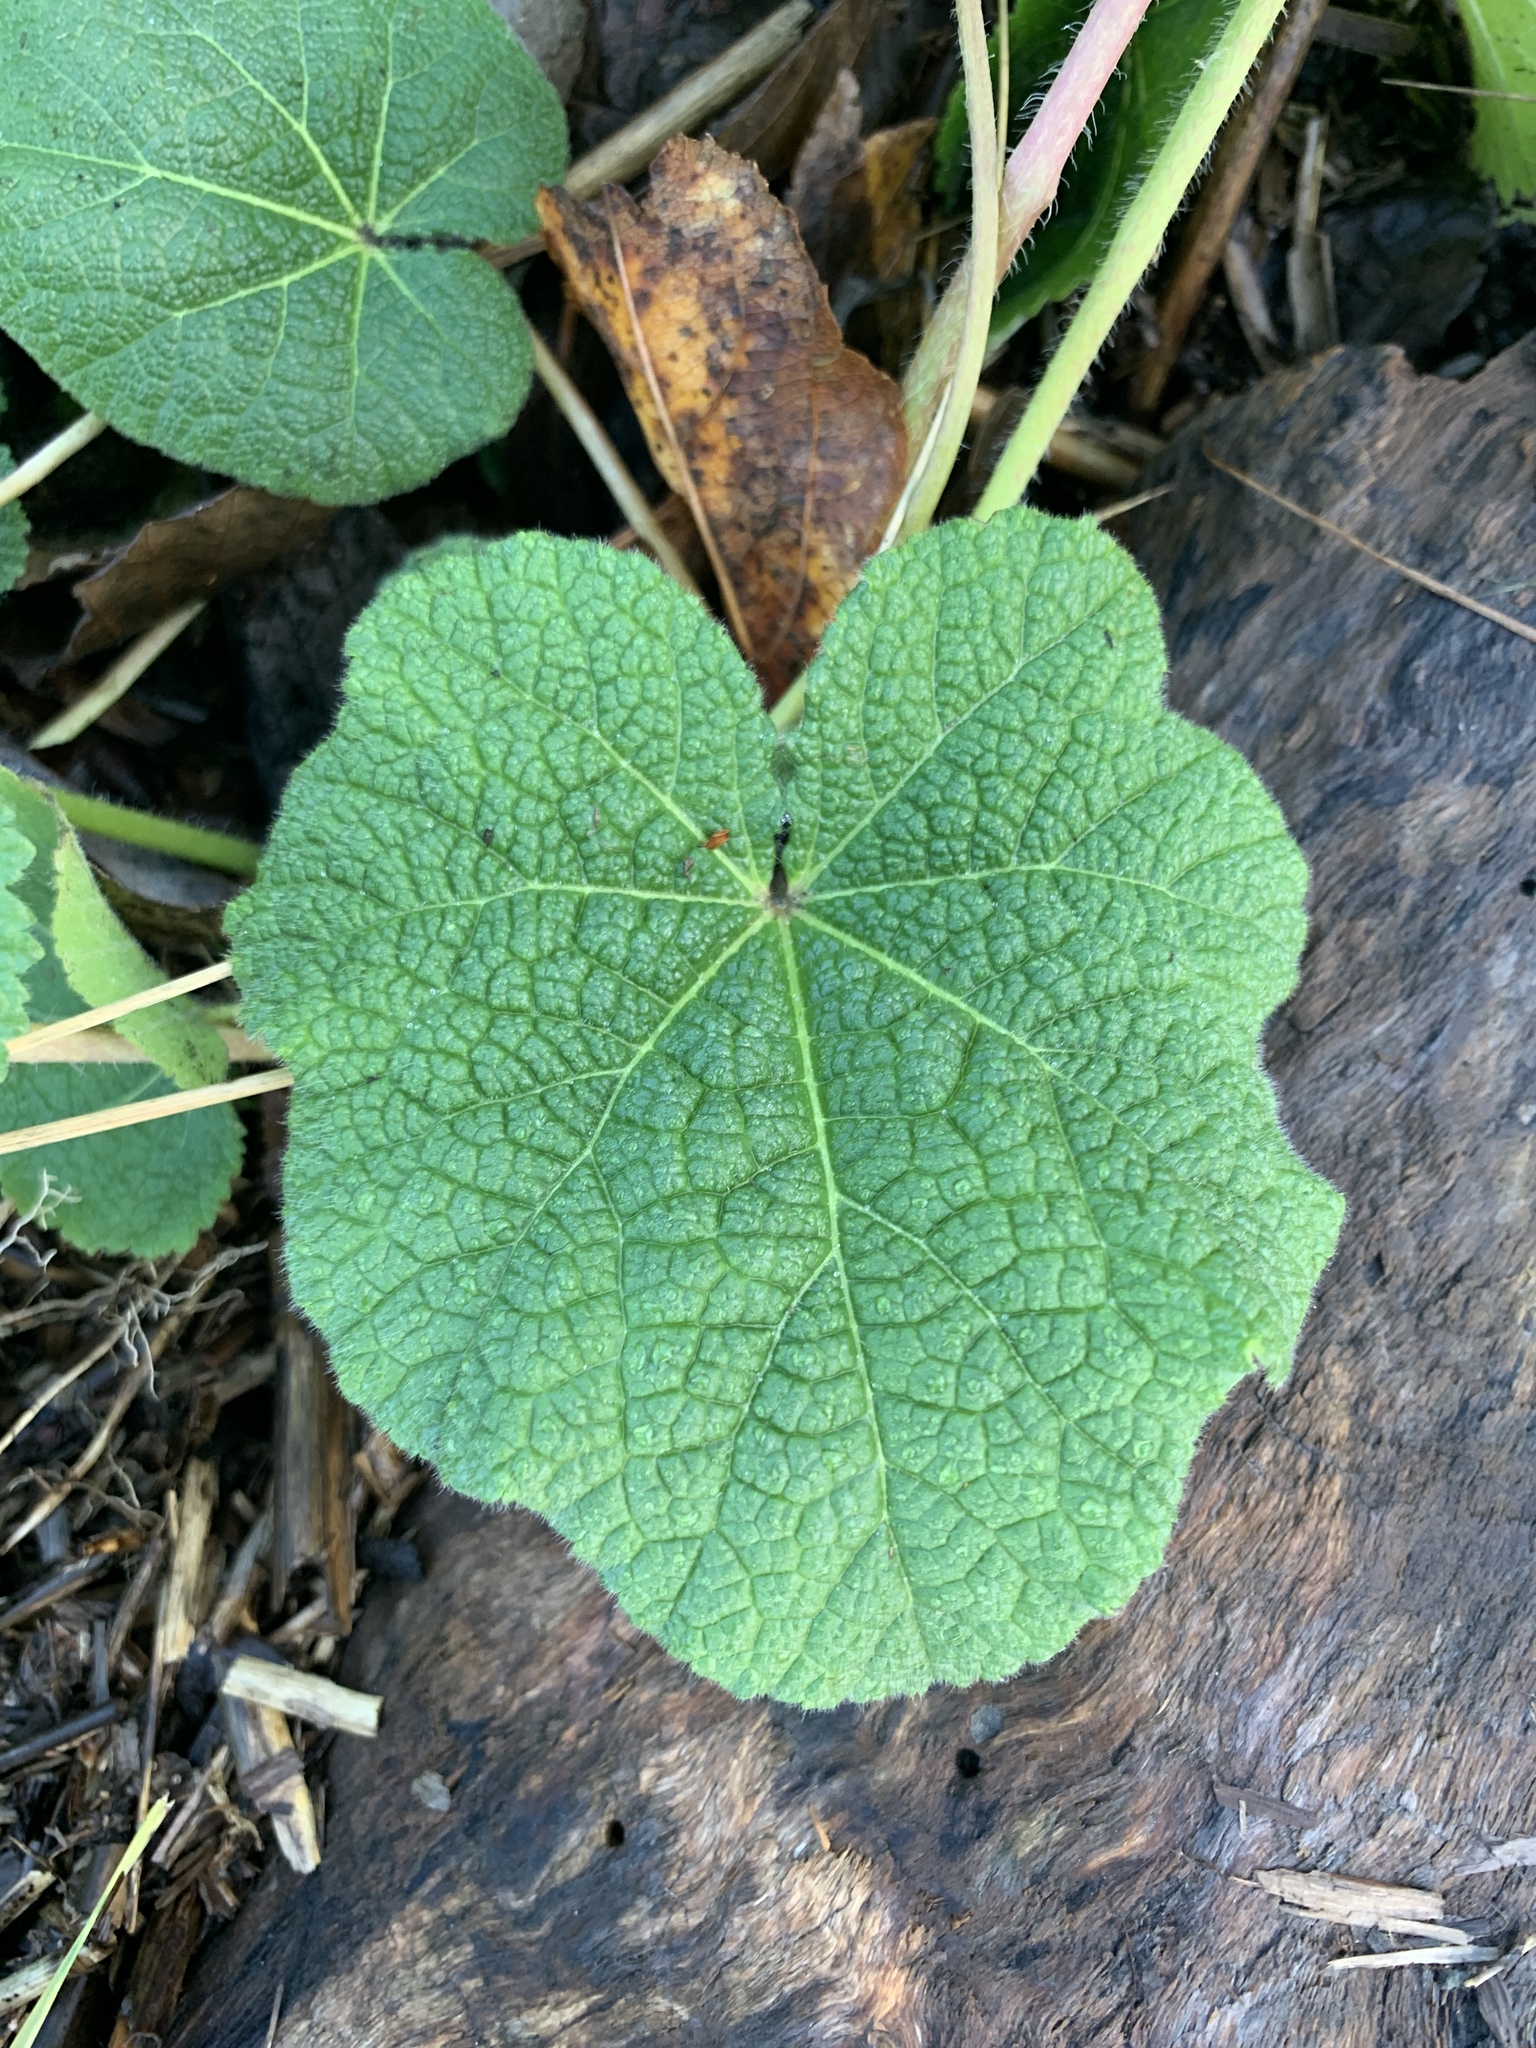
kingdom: Plantae
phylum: Tracheophyta
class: Magnoliopsida
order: Malvales
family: Malvaceae
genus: Alcea
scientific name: Alcea rosea
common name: Hollyhock
